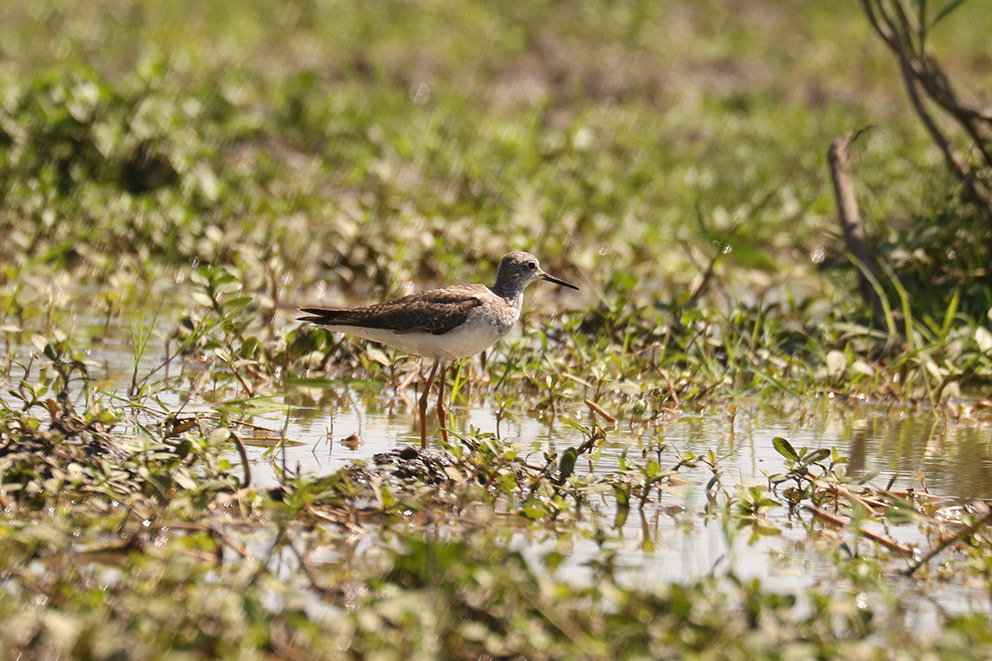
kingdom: Animalia
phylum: Chordata
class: Aves
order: Charadriiformes
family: Scolopacidae
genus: Tringa
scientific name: Tringa flavipes
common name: Lesser yellowlegs
